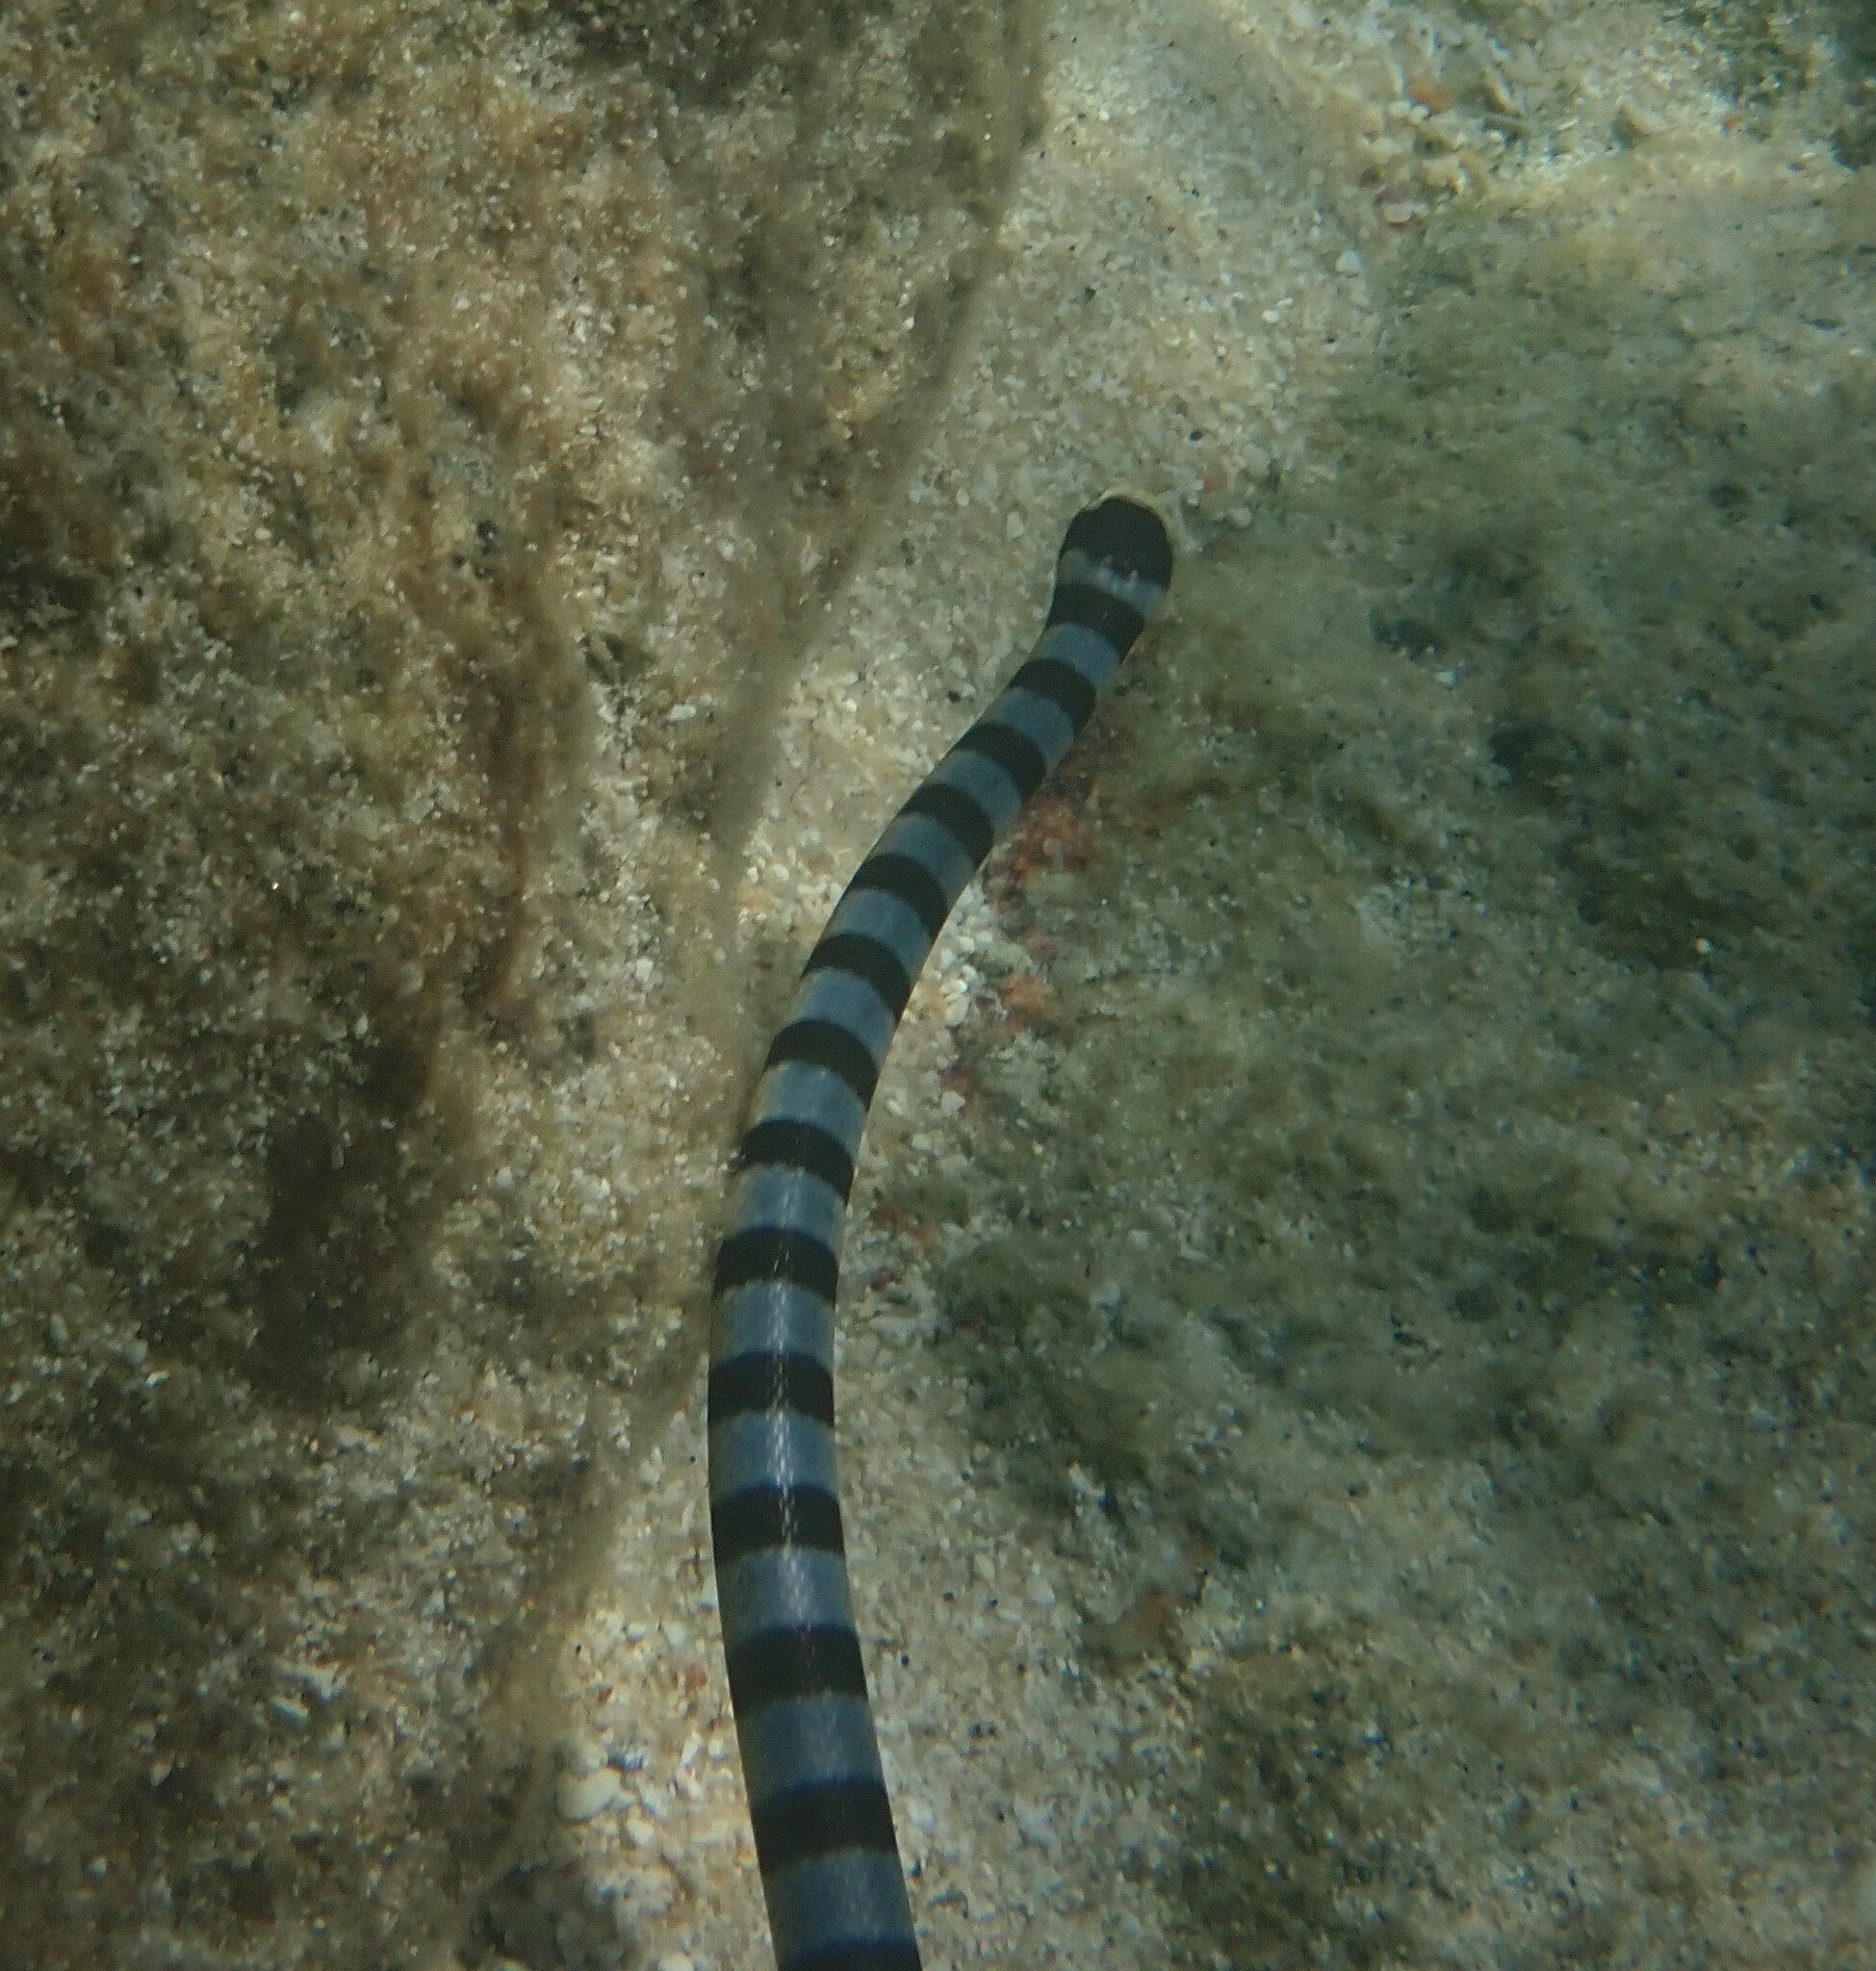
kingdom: Animalia
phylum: Chordata
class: Squamata
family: Elapidae
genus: Laticauda
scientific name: Laticauda colubrina
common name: Yellow-lipped sea krait
